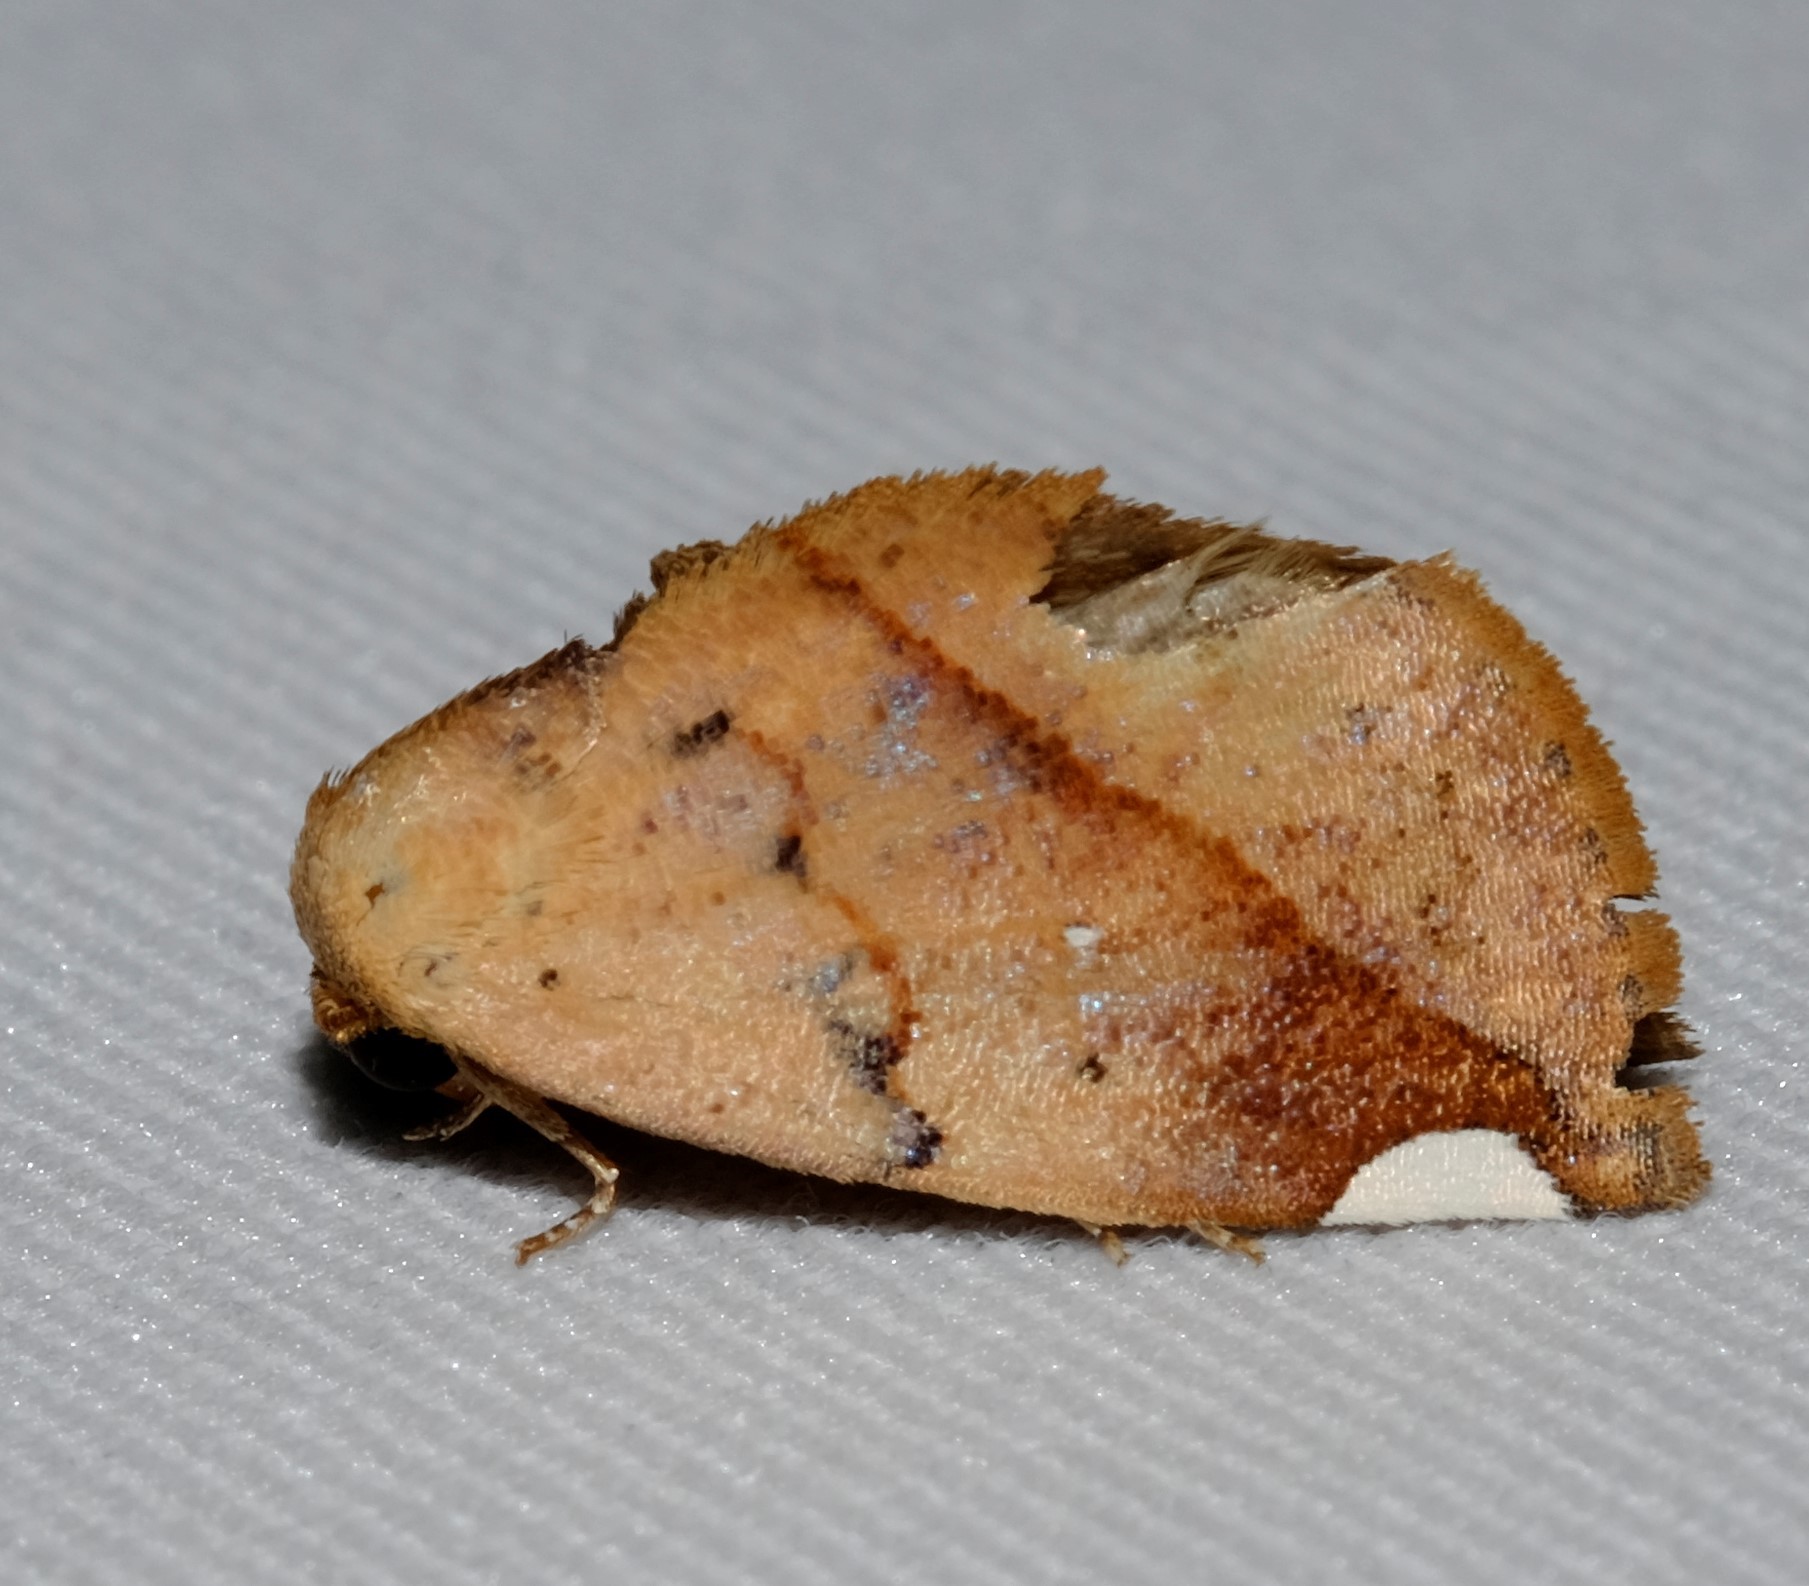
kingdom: Animalia
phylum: Arthropoda
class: Insecta
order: Lepidoptera
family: Nolidae
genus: Negeta
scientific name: Negeta contrariata
